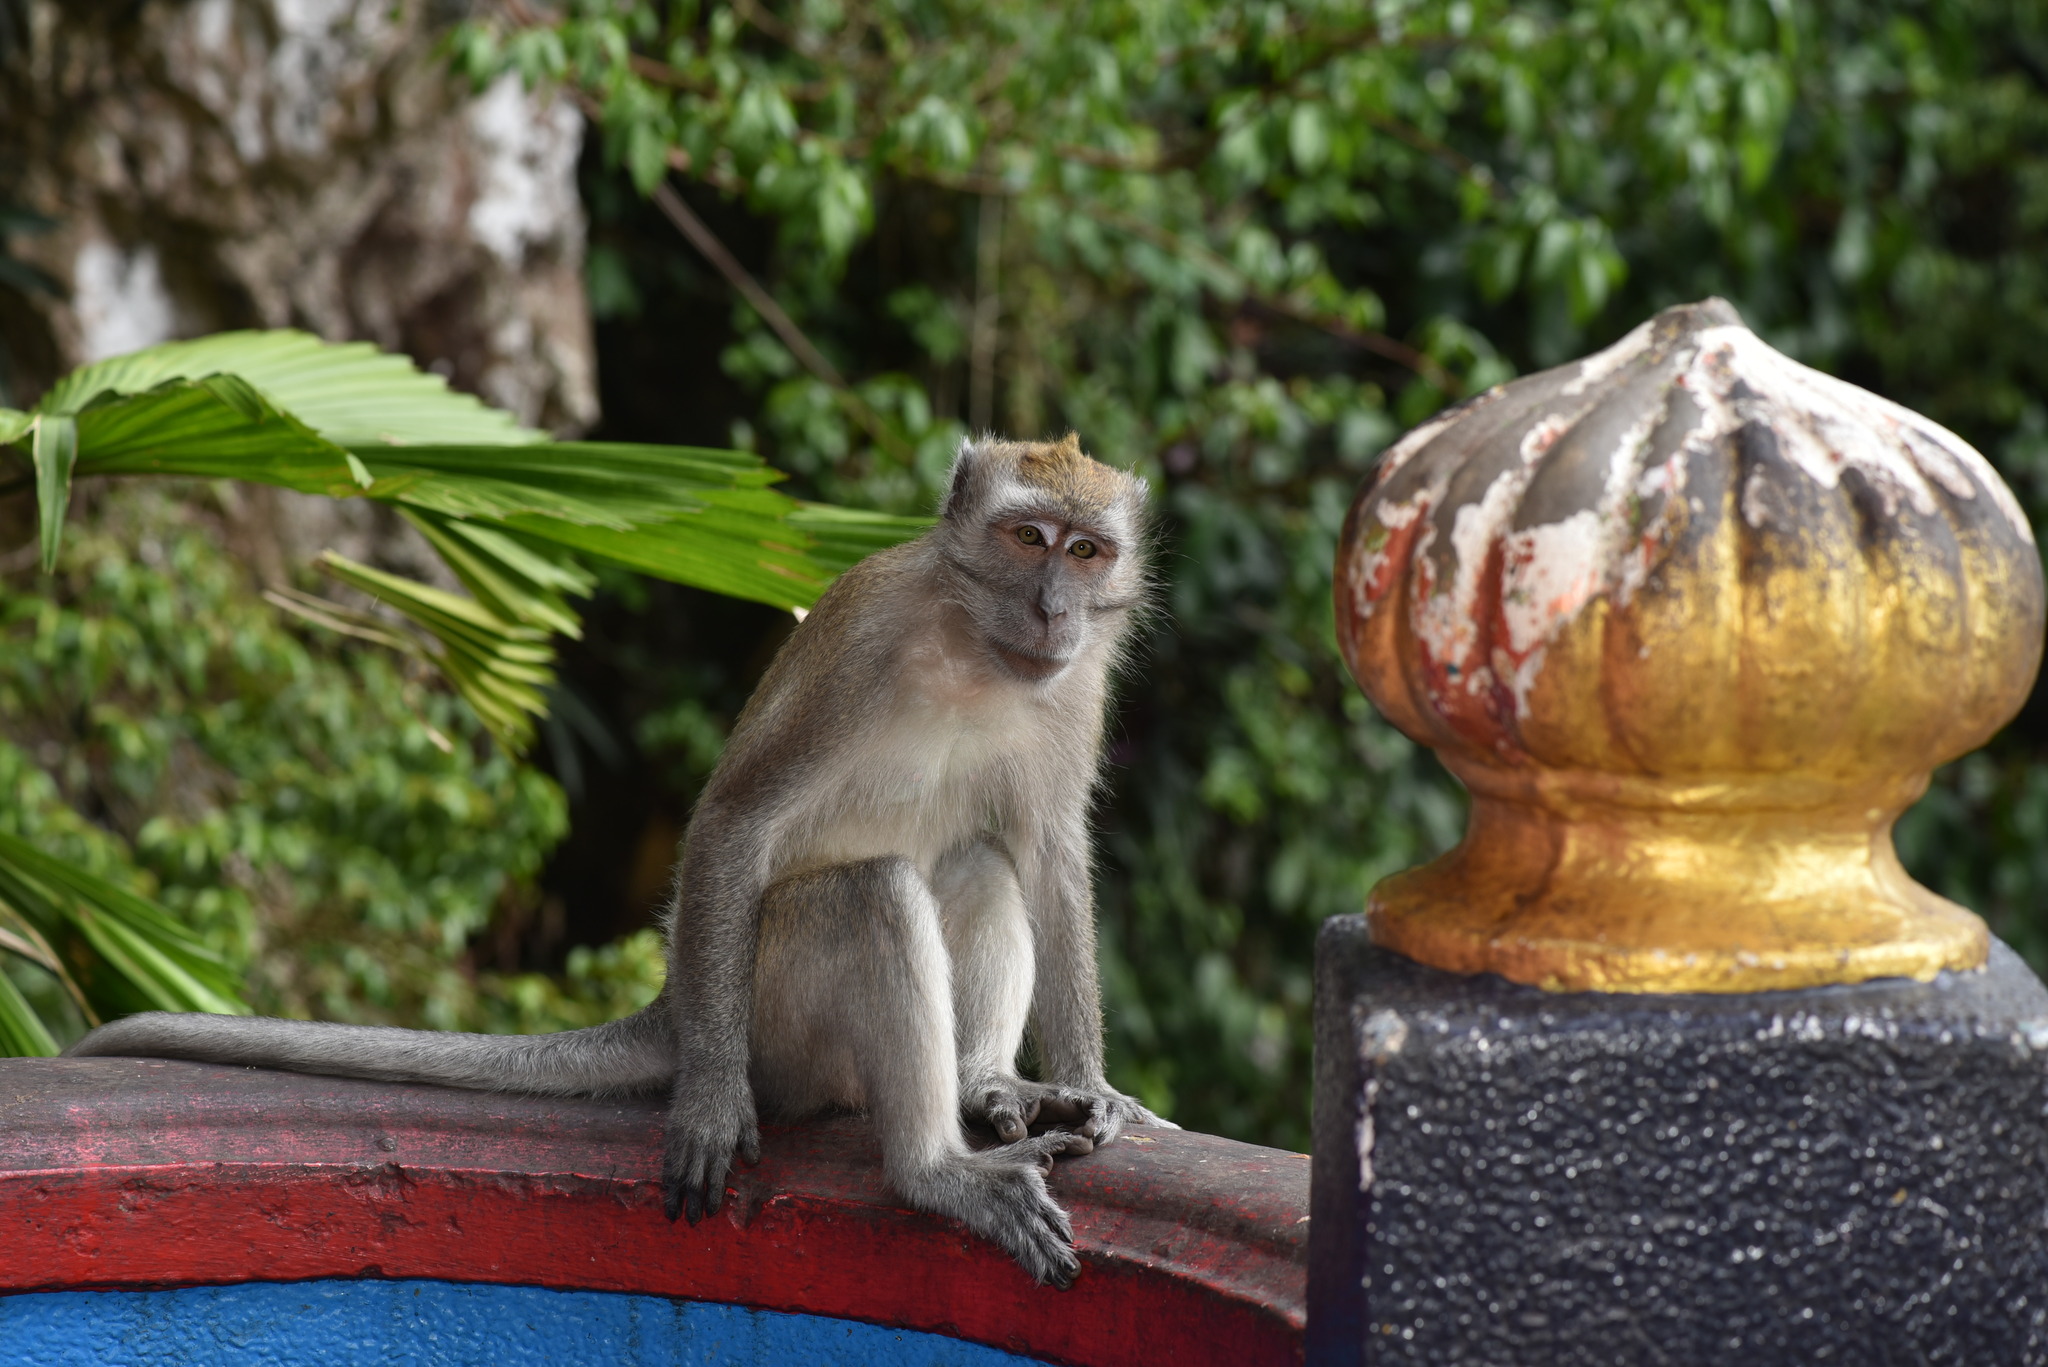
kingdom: Animalia
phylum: Chordata
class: Mammalia
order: Primates
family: Cercopithecidae
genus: Macaca
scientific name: Macaca fascicularis
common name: Crab-eating macaque
